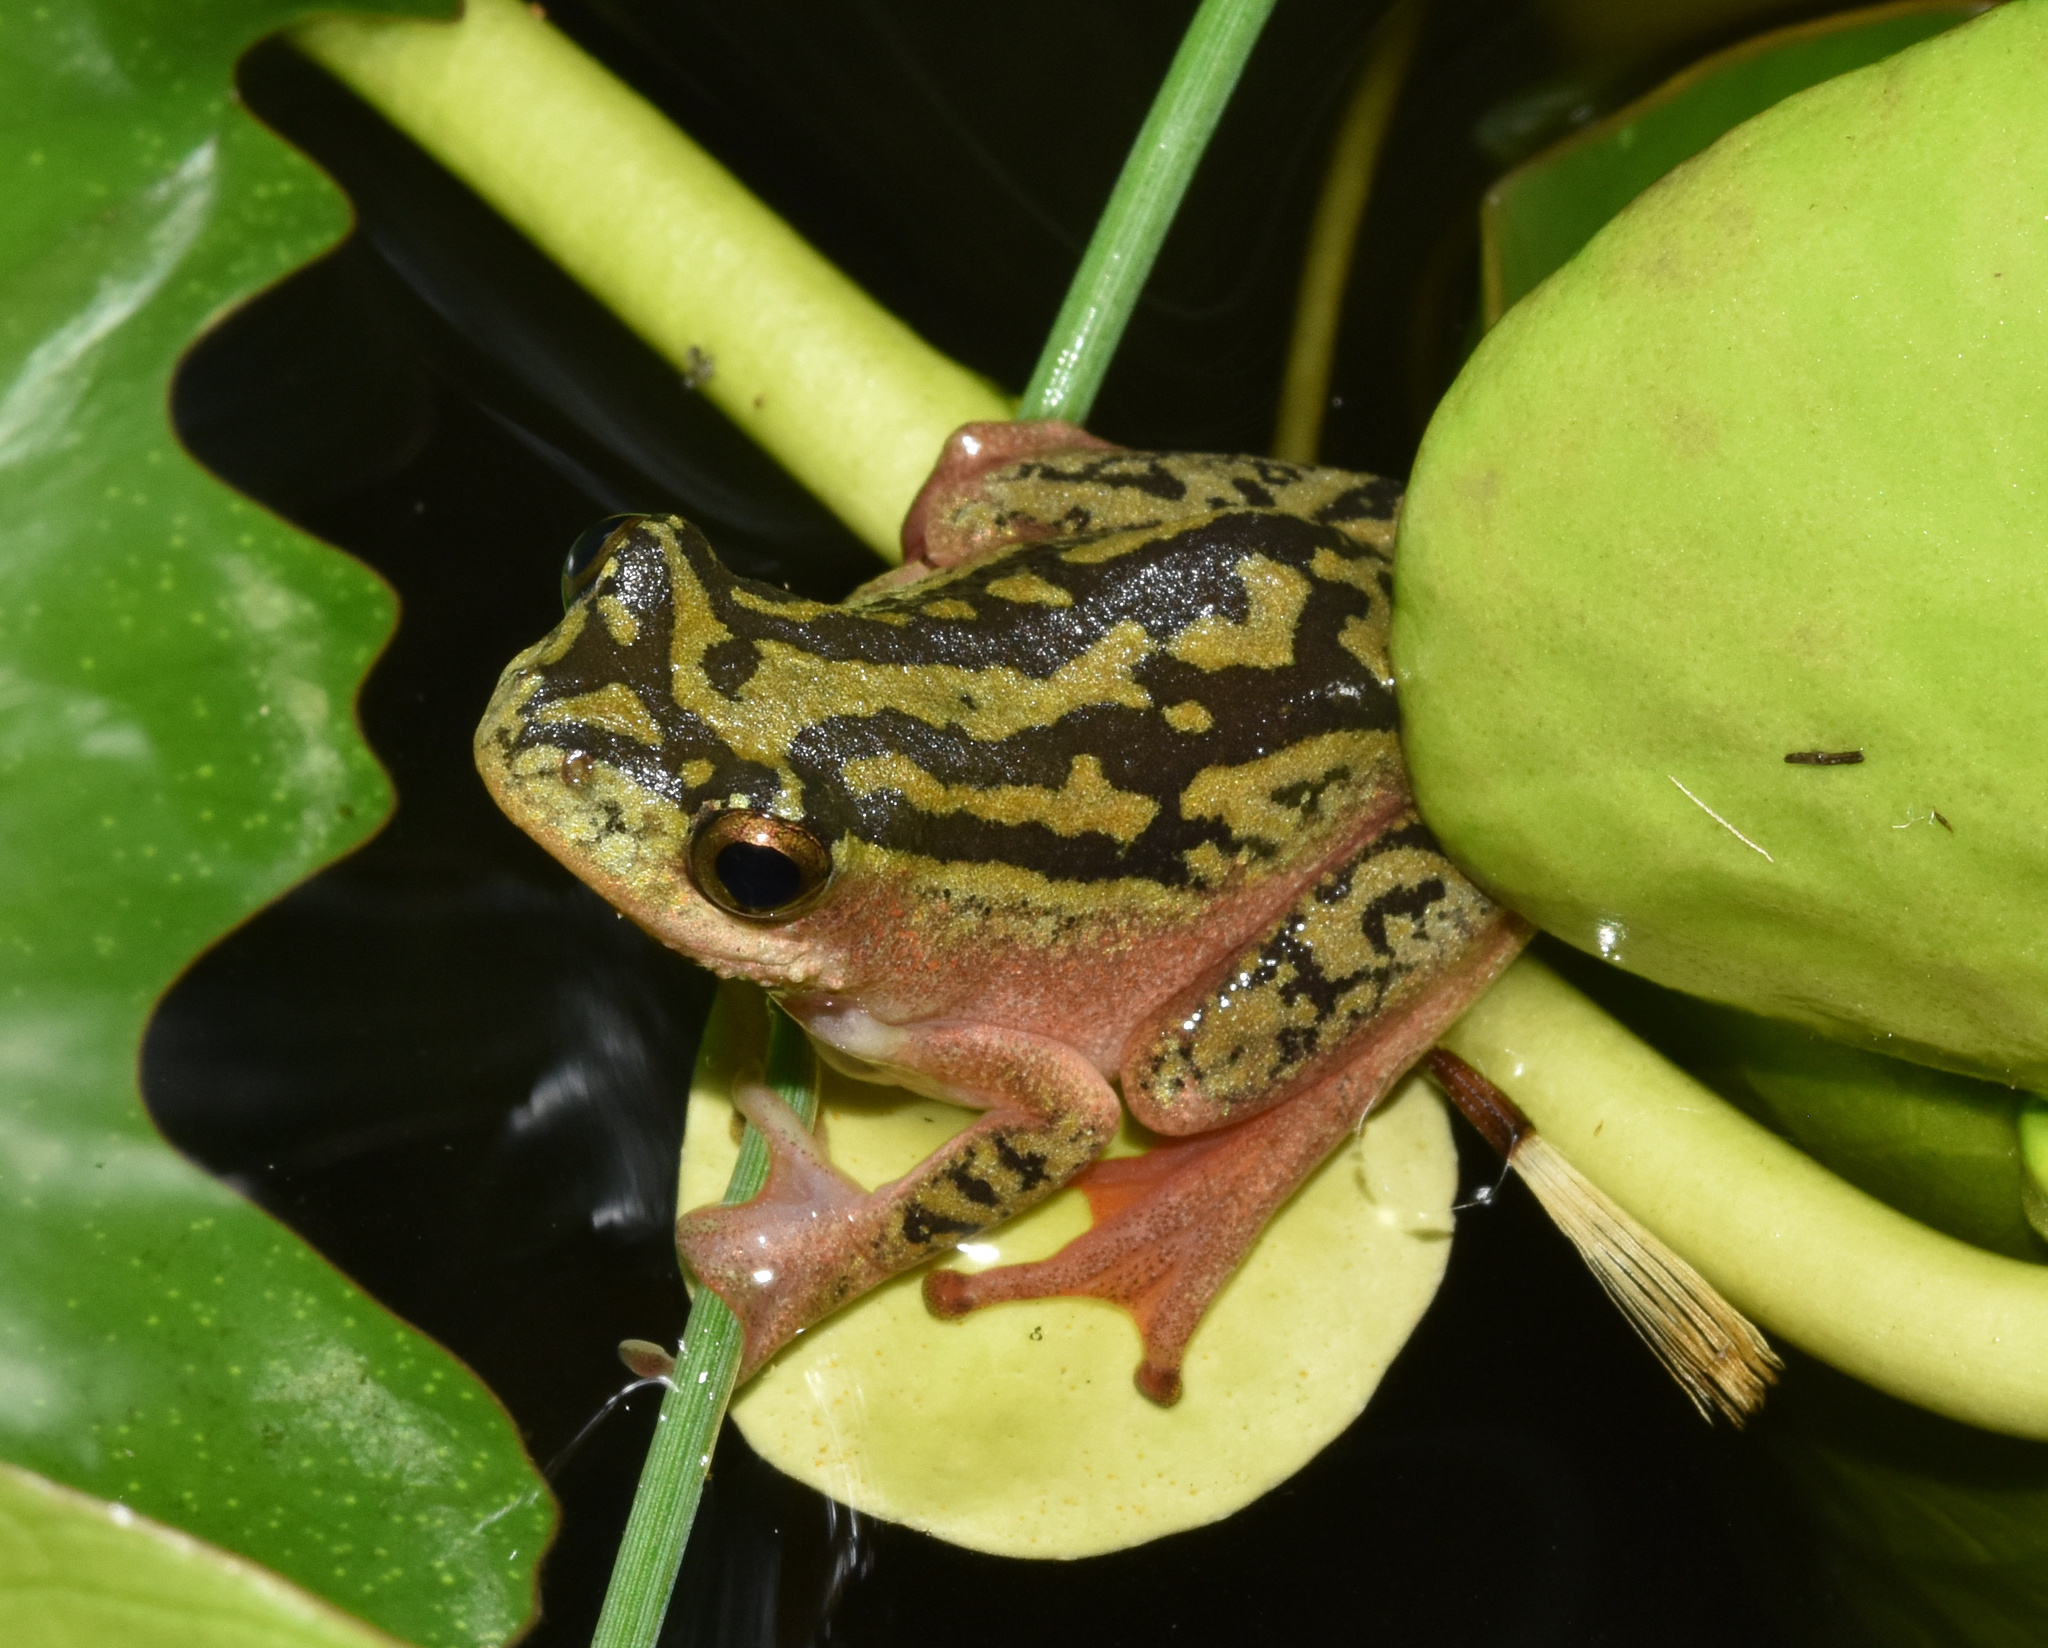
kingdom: Animalia
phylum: Chordata
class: Amphibia
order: Anura
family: Hyperoliidae
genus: Hyperolius
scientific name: Hyperolius marmoratus
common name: Painted reed frog
